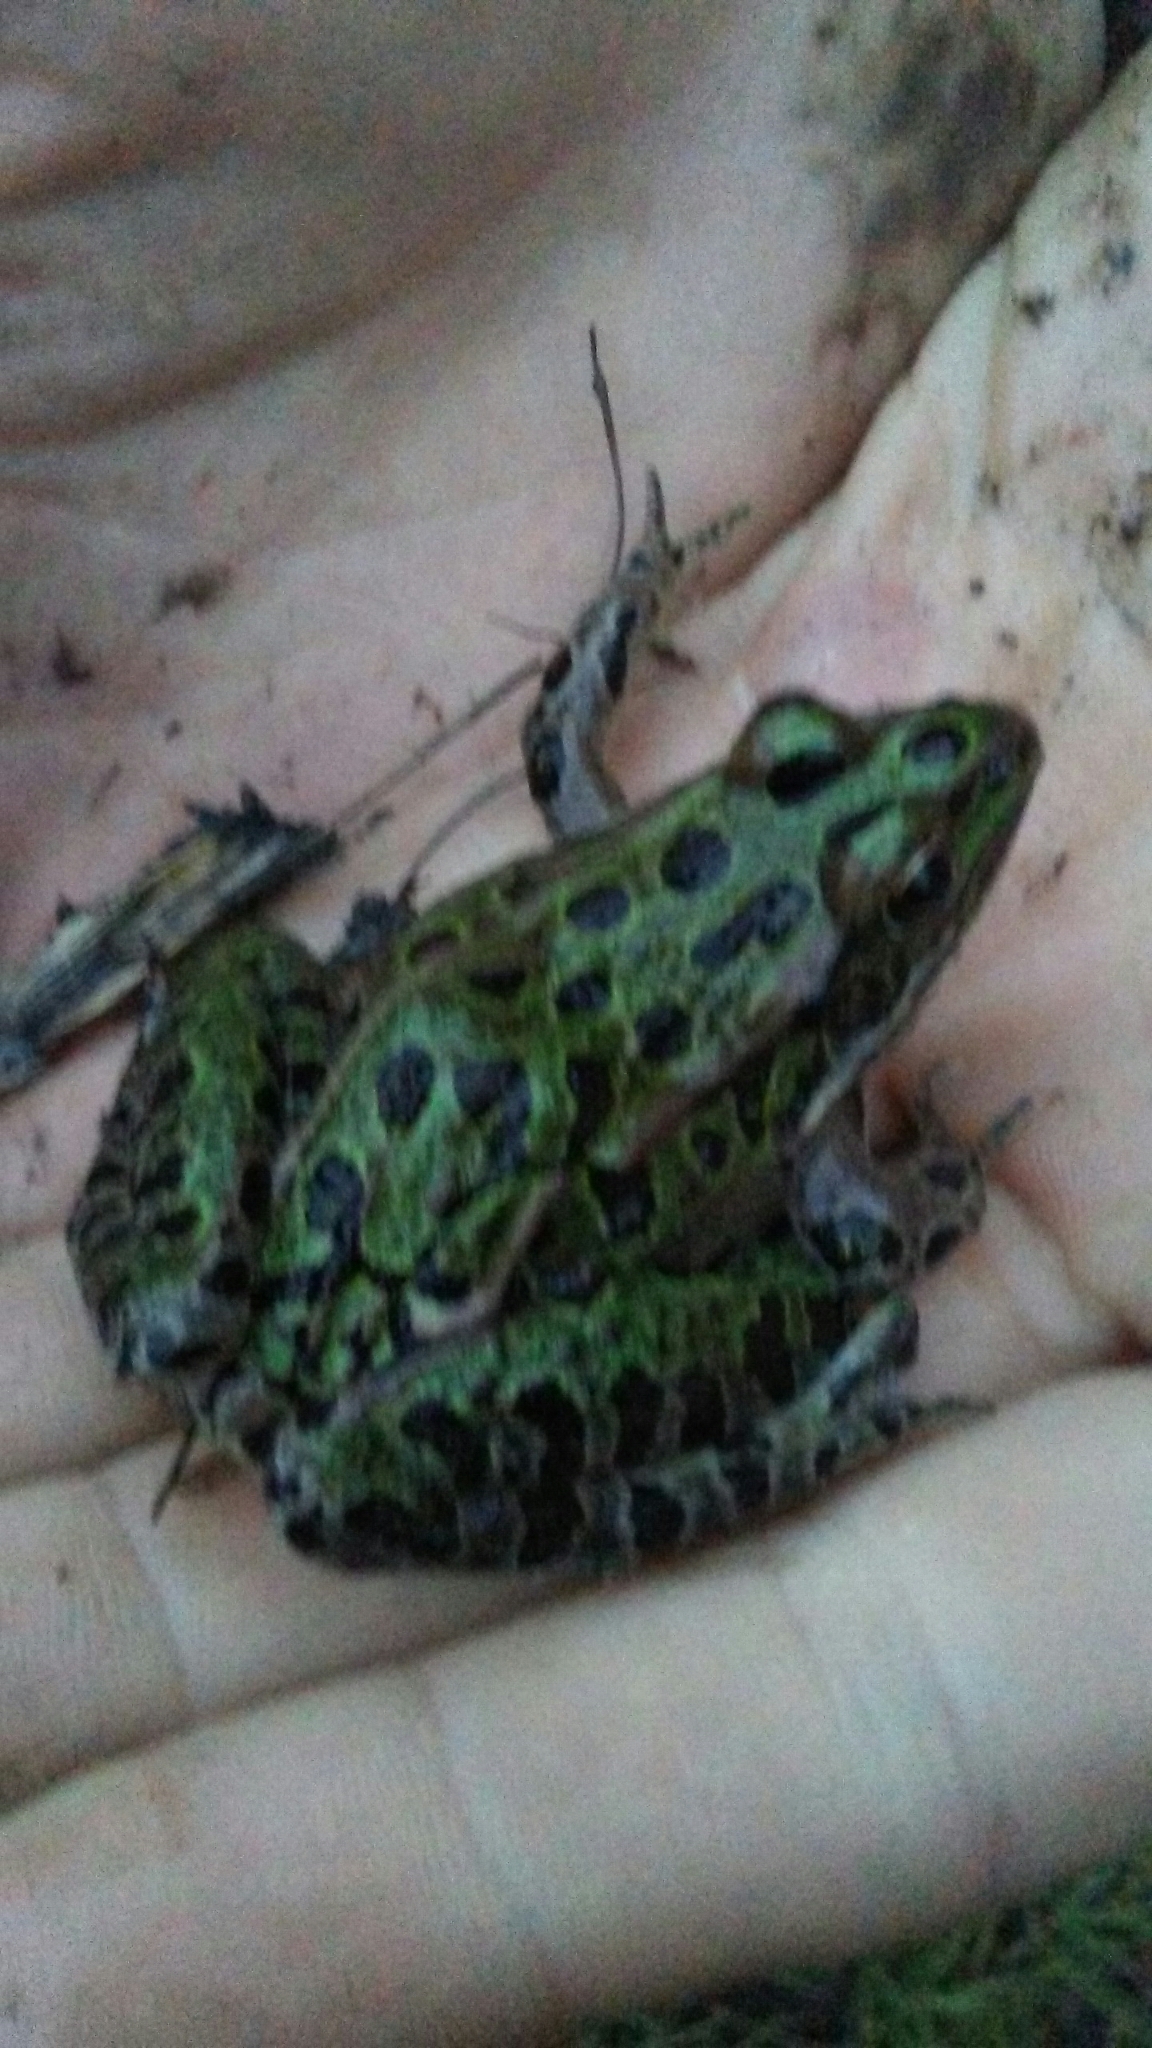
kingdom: Animalia
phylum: Chordata
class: Amphibia
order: Anura
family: Ranidae
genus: Lithobates
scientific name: Lithobates pipiens
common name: Northern leopard frog
